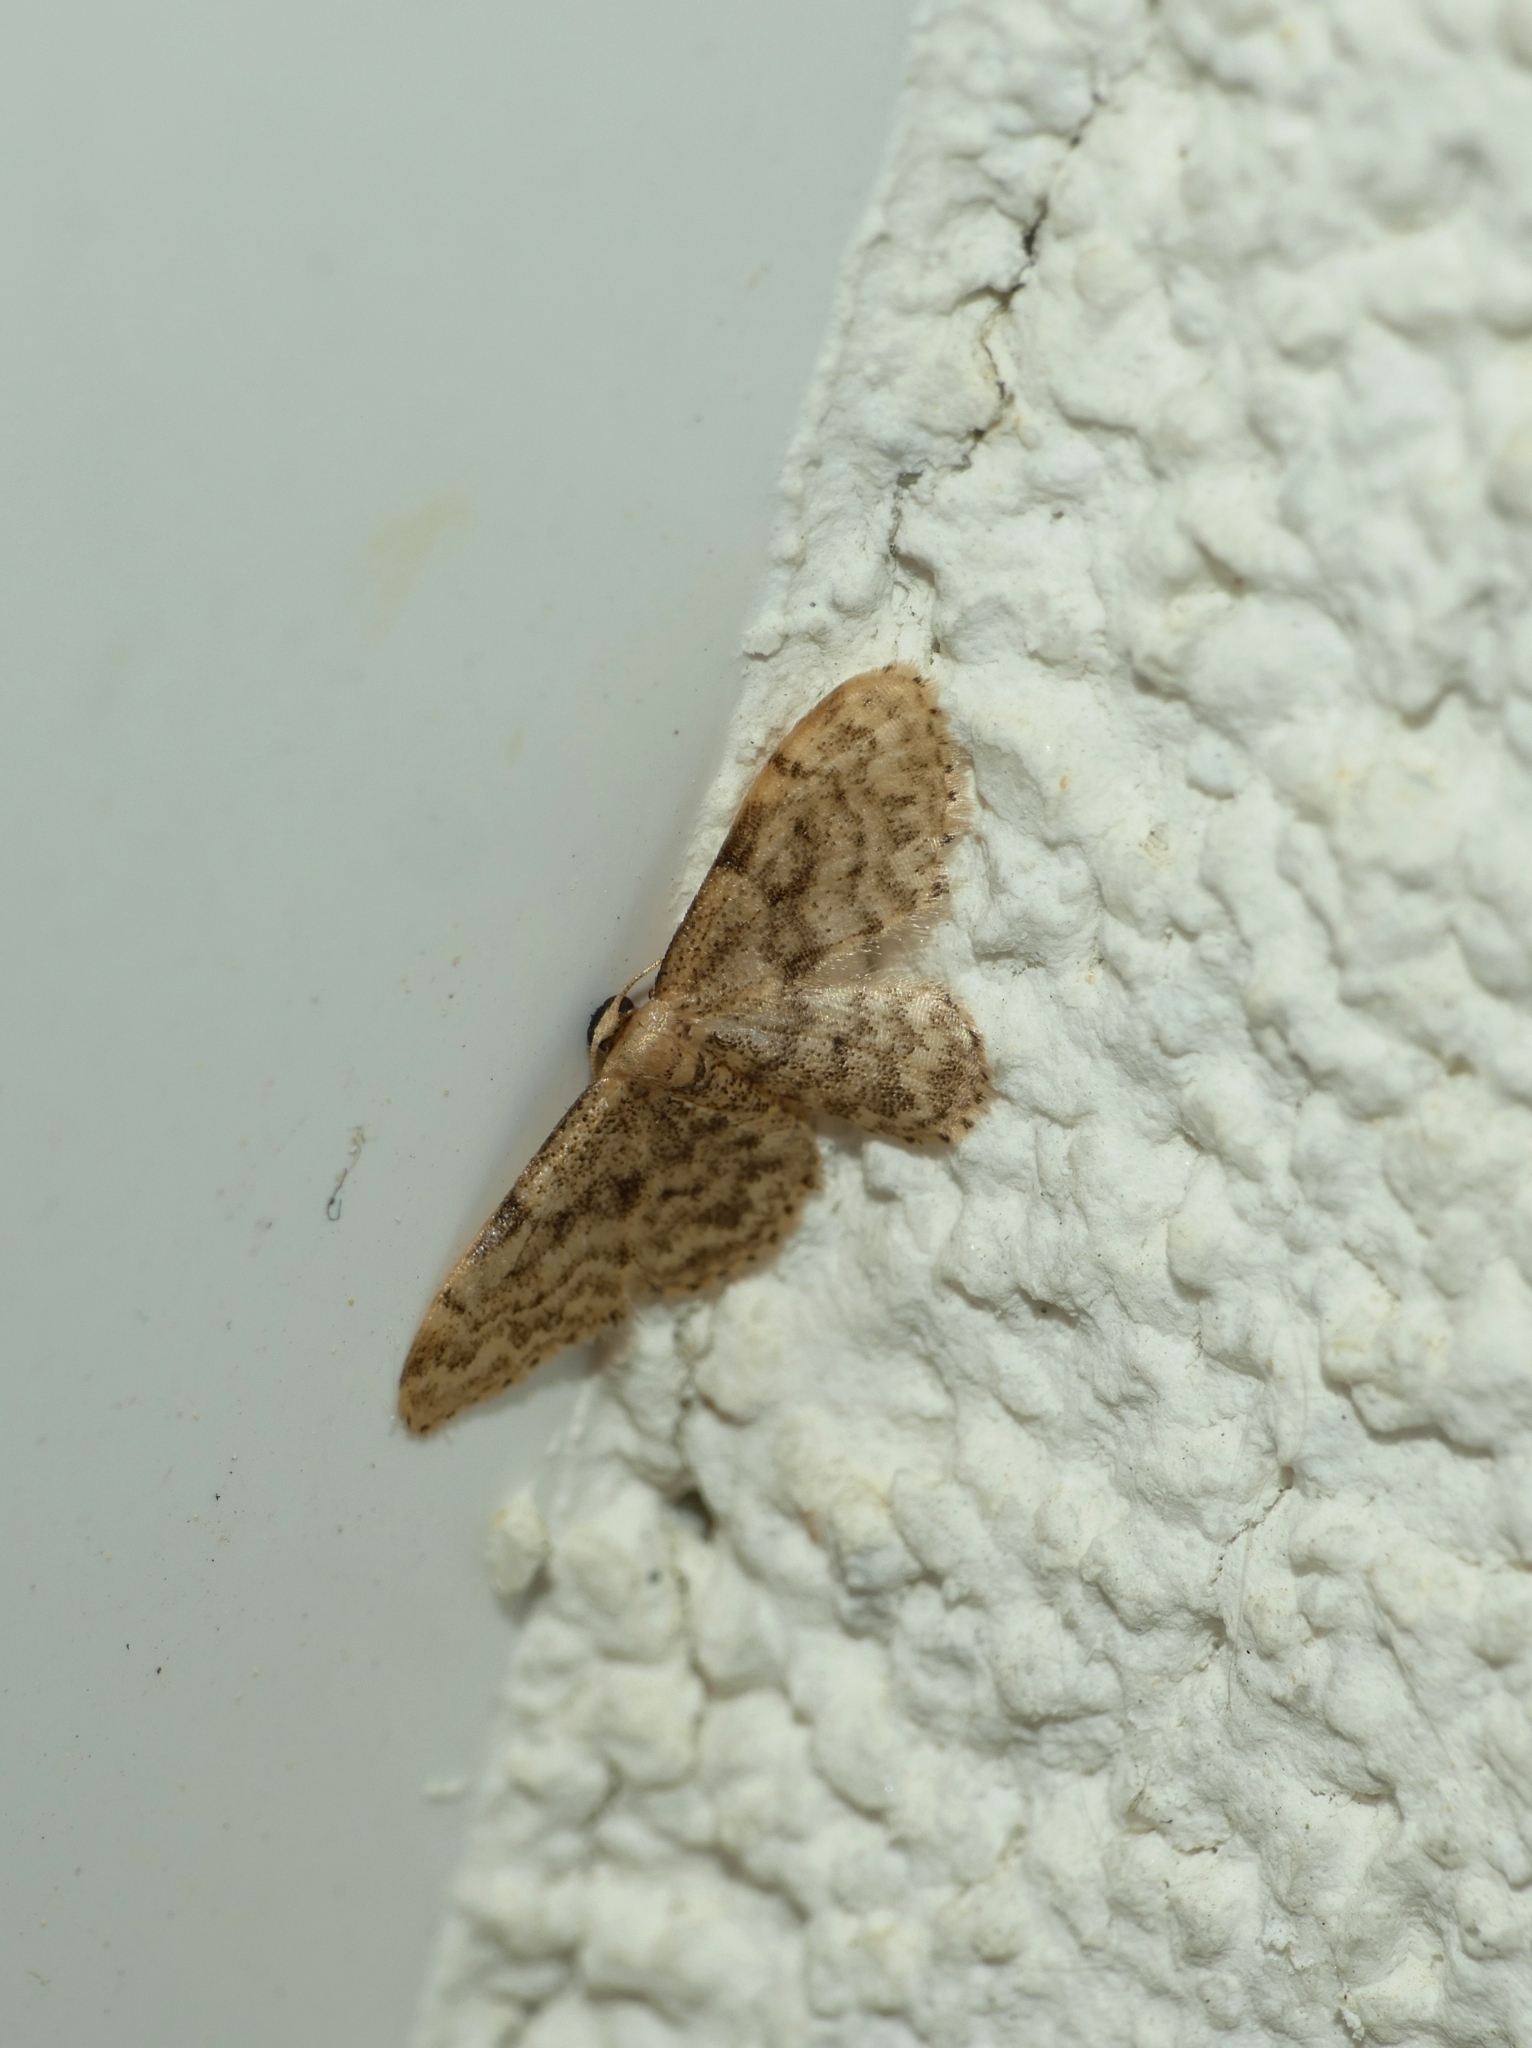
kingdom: Animalia
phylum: Arthropoda
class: Insecta
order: Lepidoptera
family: Geometridae
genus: Idaea
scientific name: Idaea inquinata
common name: Rusty wave
